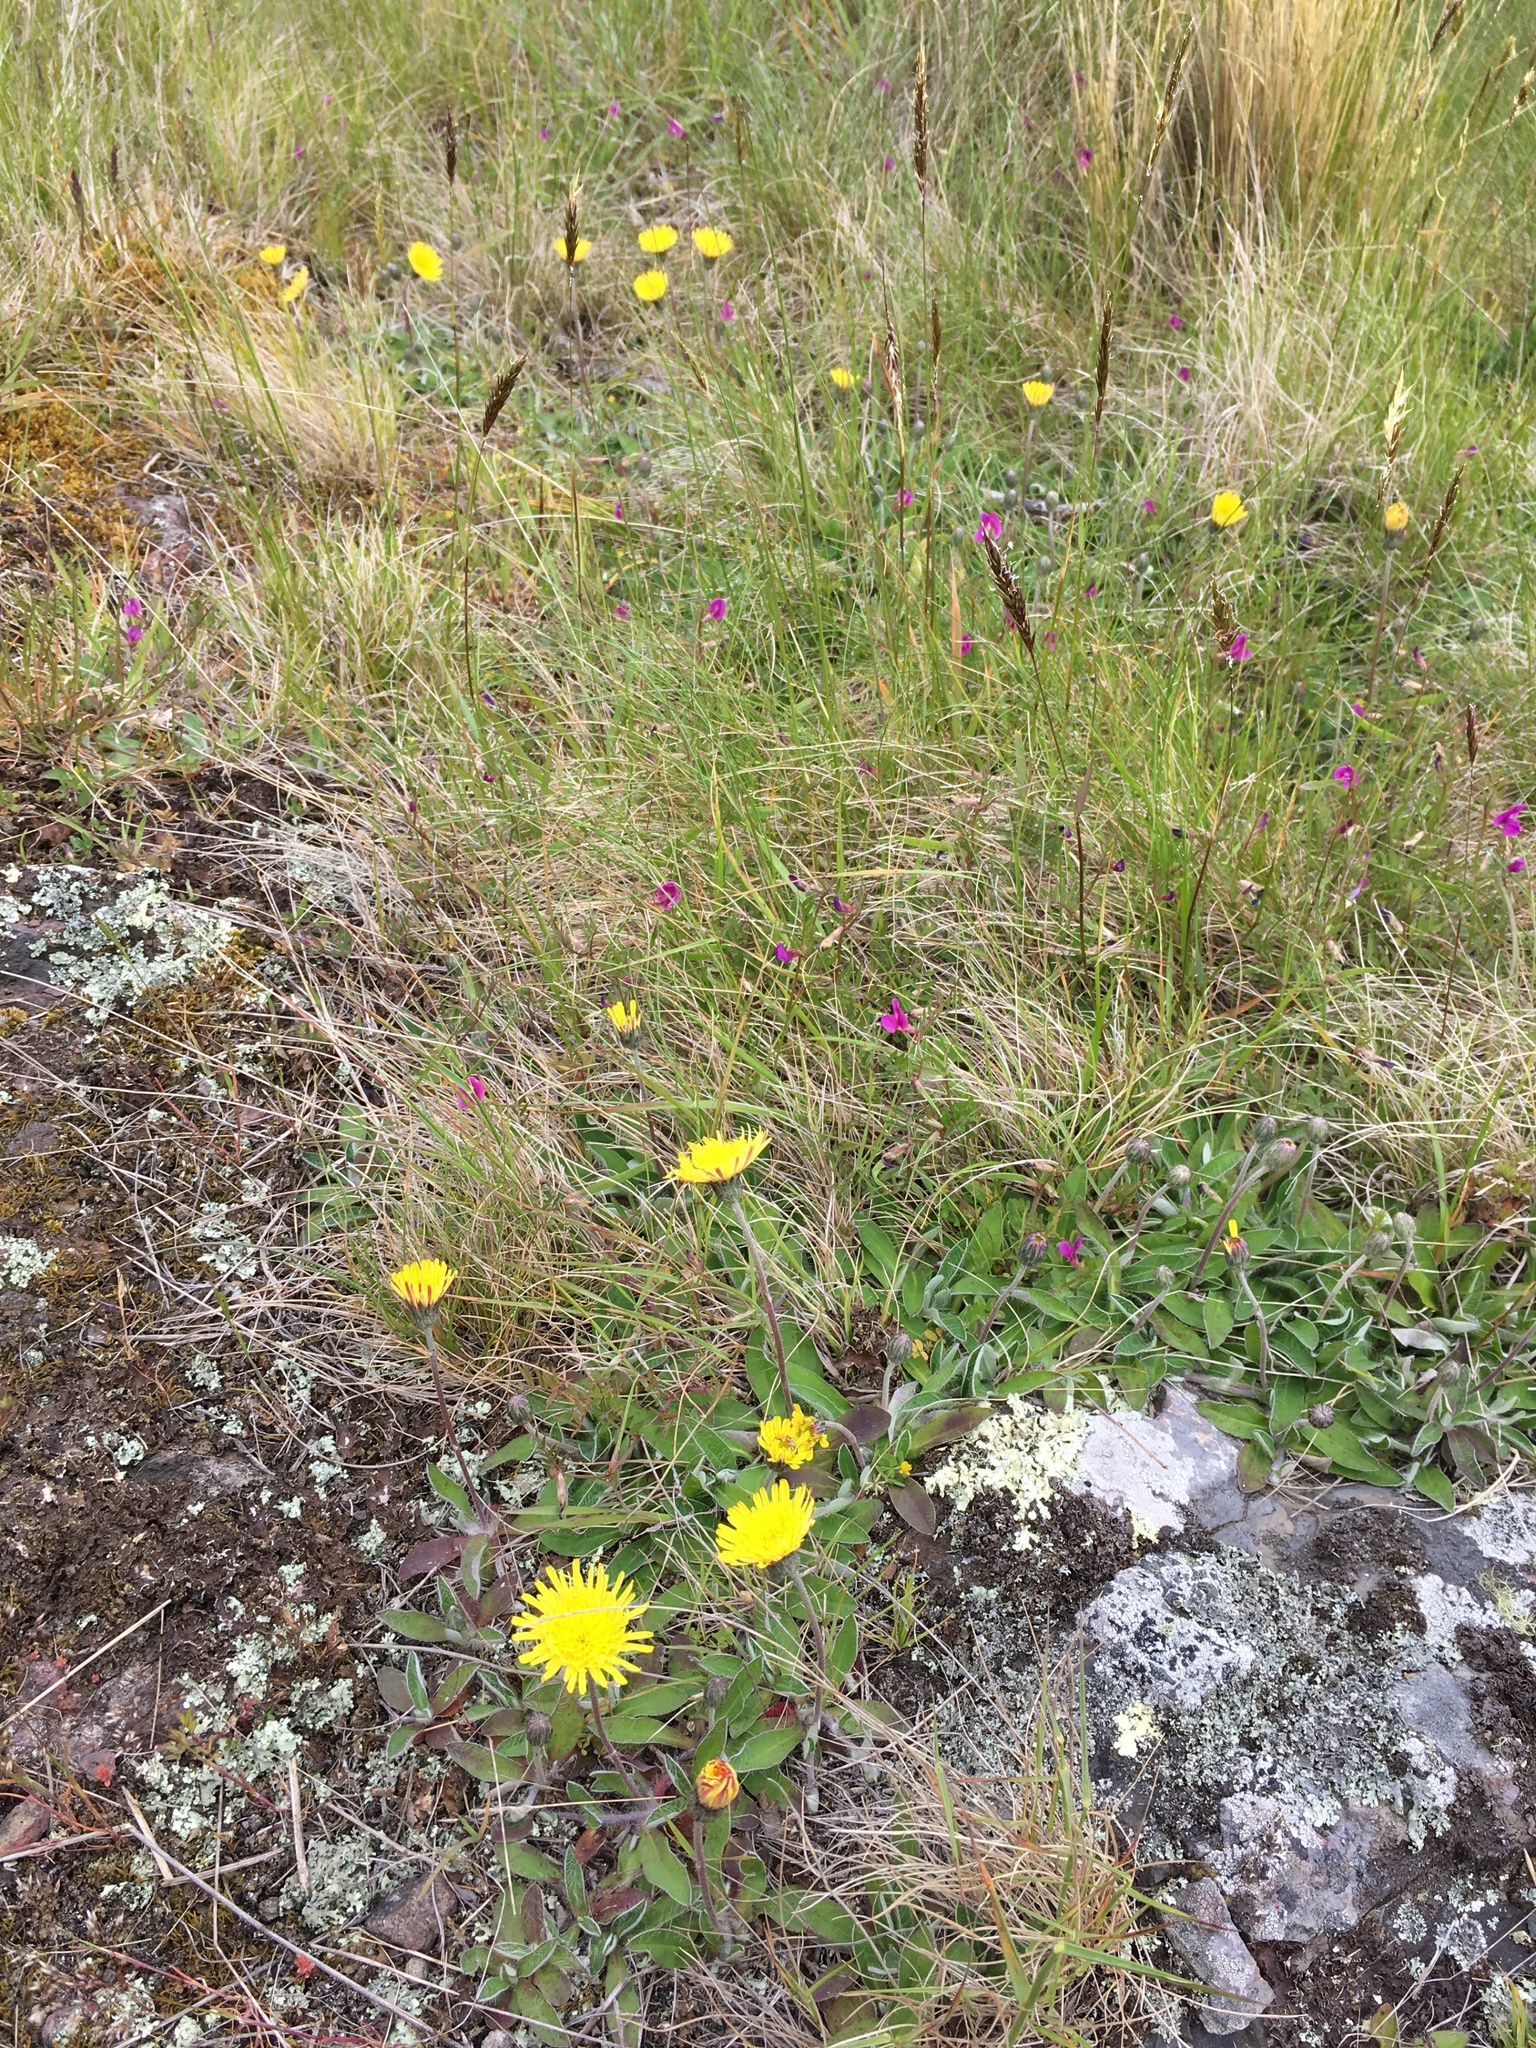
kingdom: Plantae
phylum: Tracheophyta
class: Magnoliopsida
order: Asterales
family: Asteraceae
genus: Pilosella
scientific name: Pilosella officinarum
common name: Mouse-ear hawkweed
